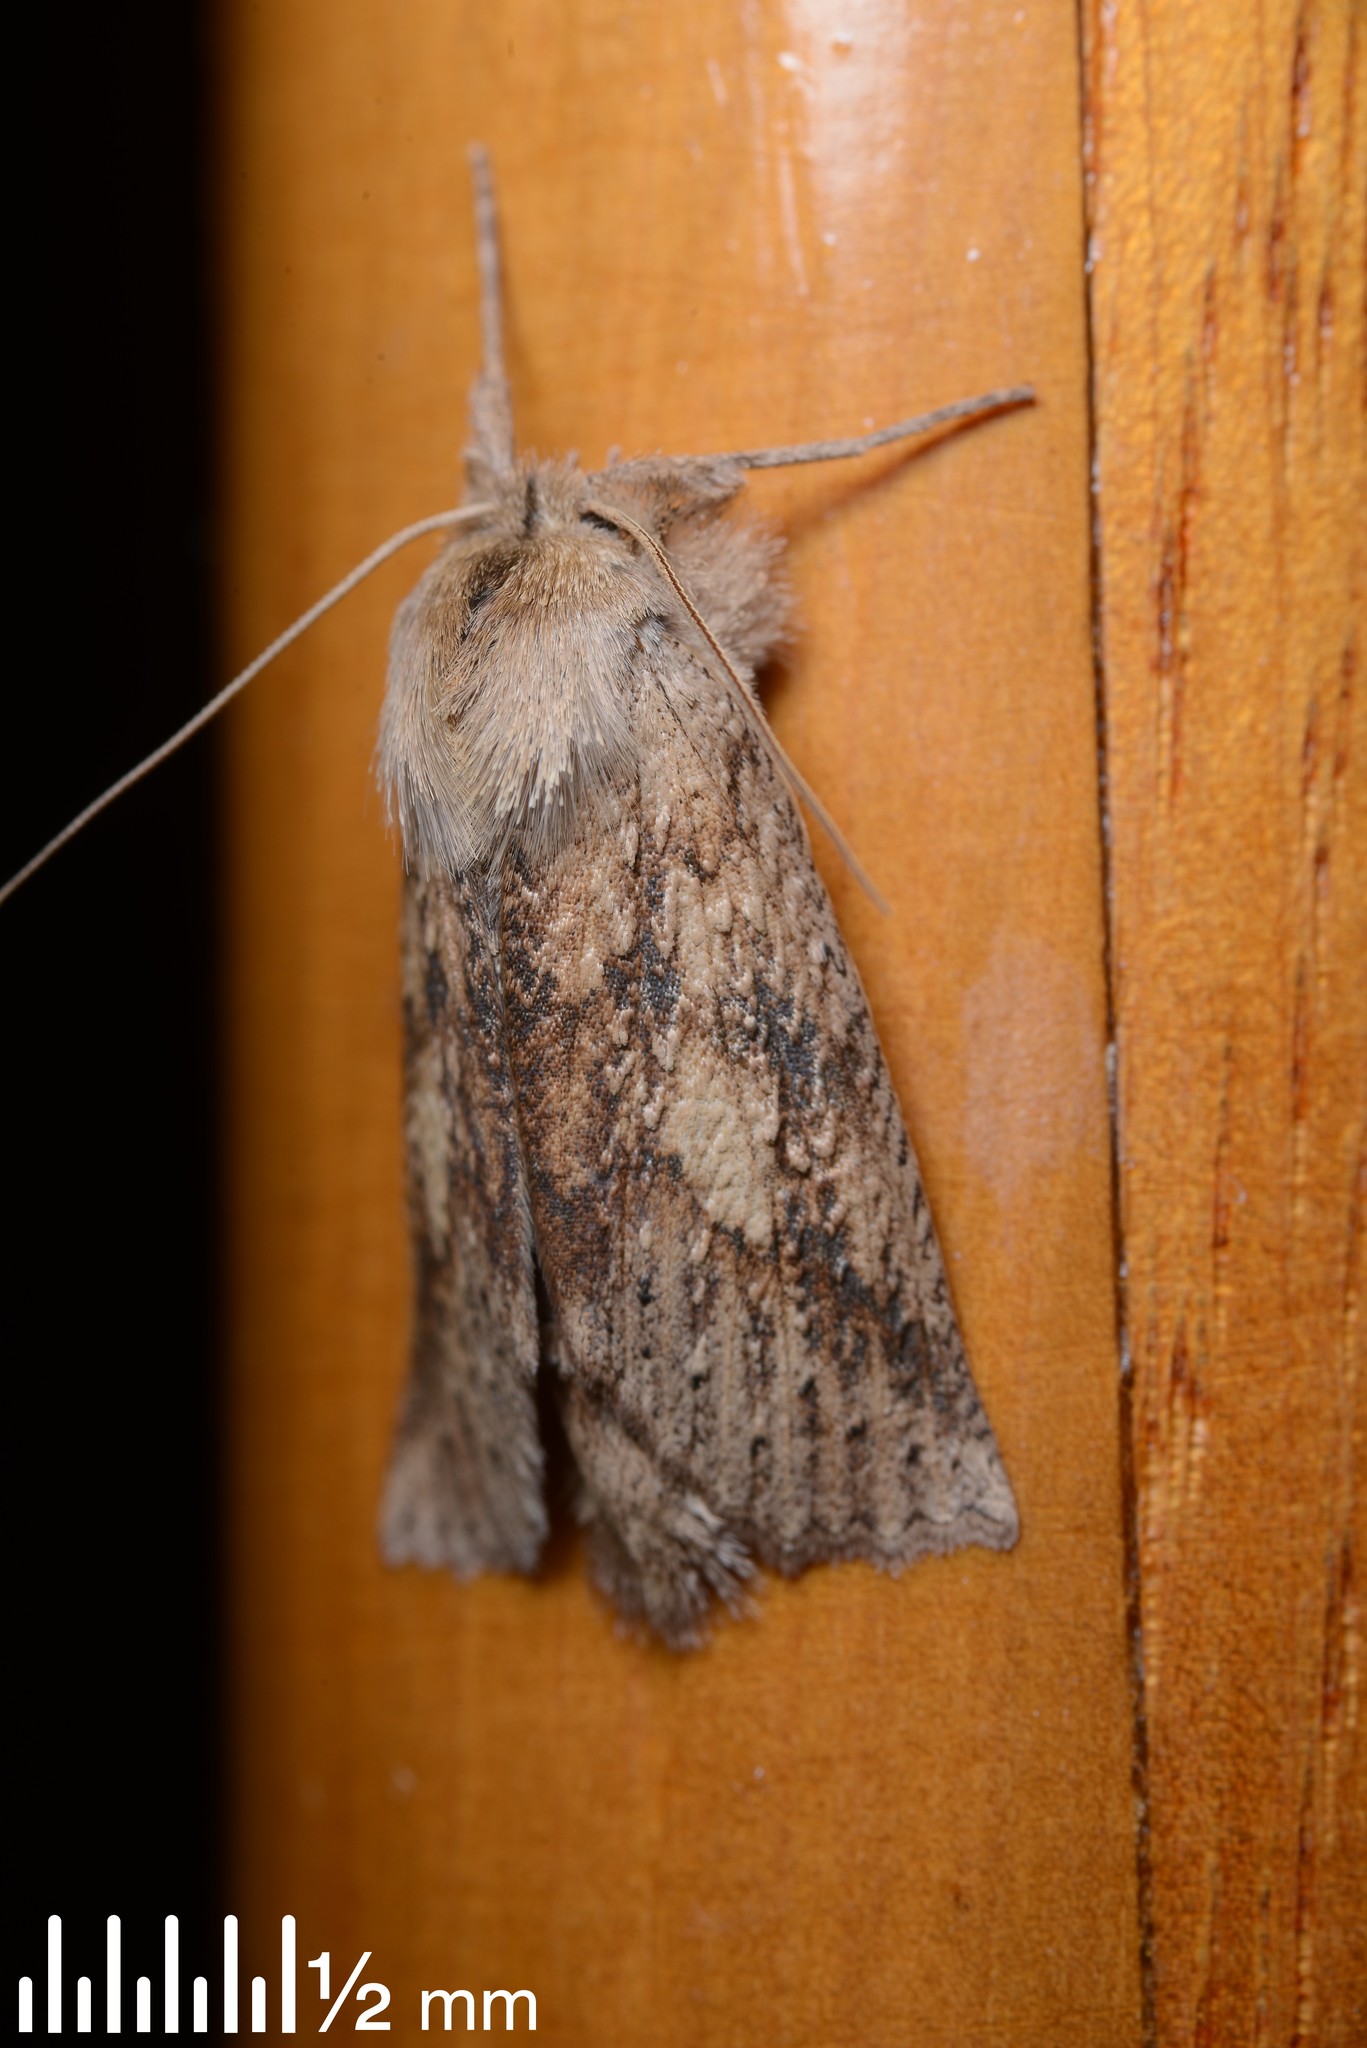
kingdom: Animalia
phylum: Arthropoda
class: Insecta
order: Lepidoptera
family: Geometridae
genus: Declana
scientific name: Declana leptomera
